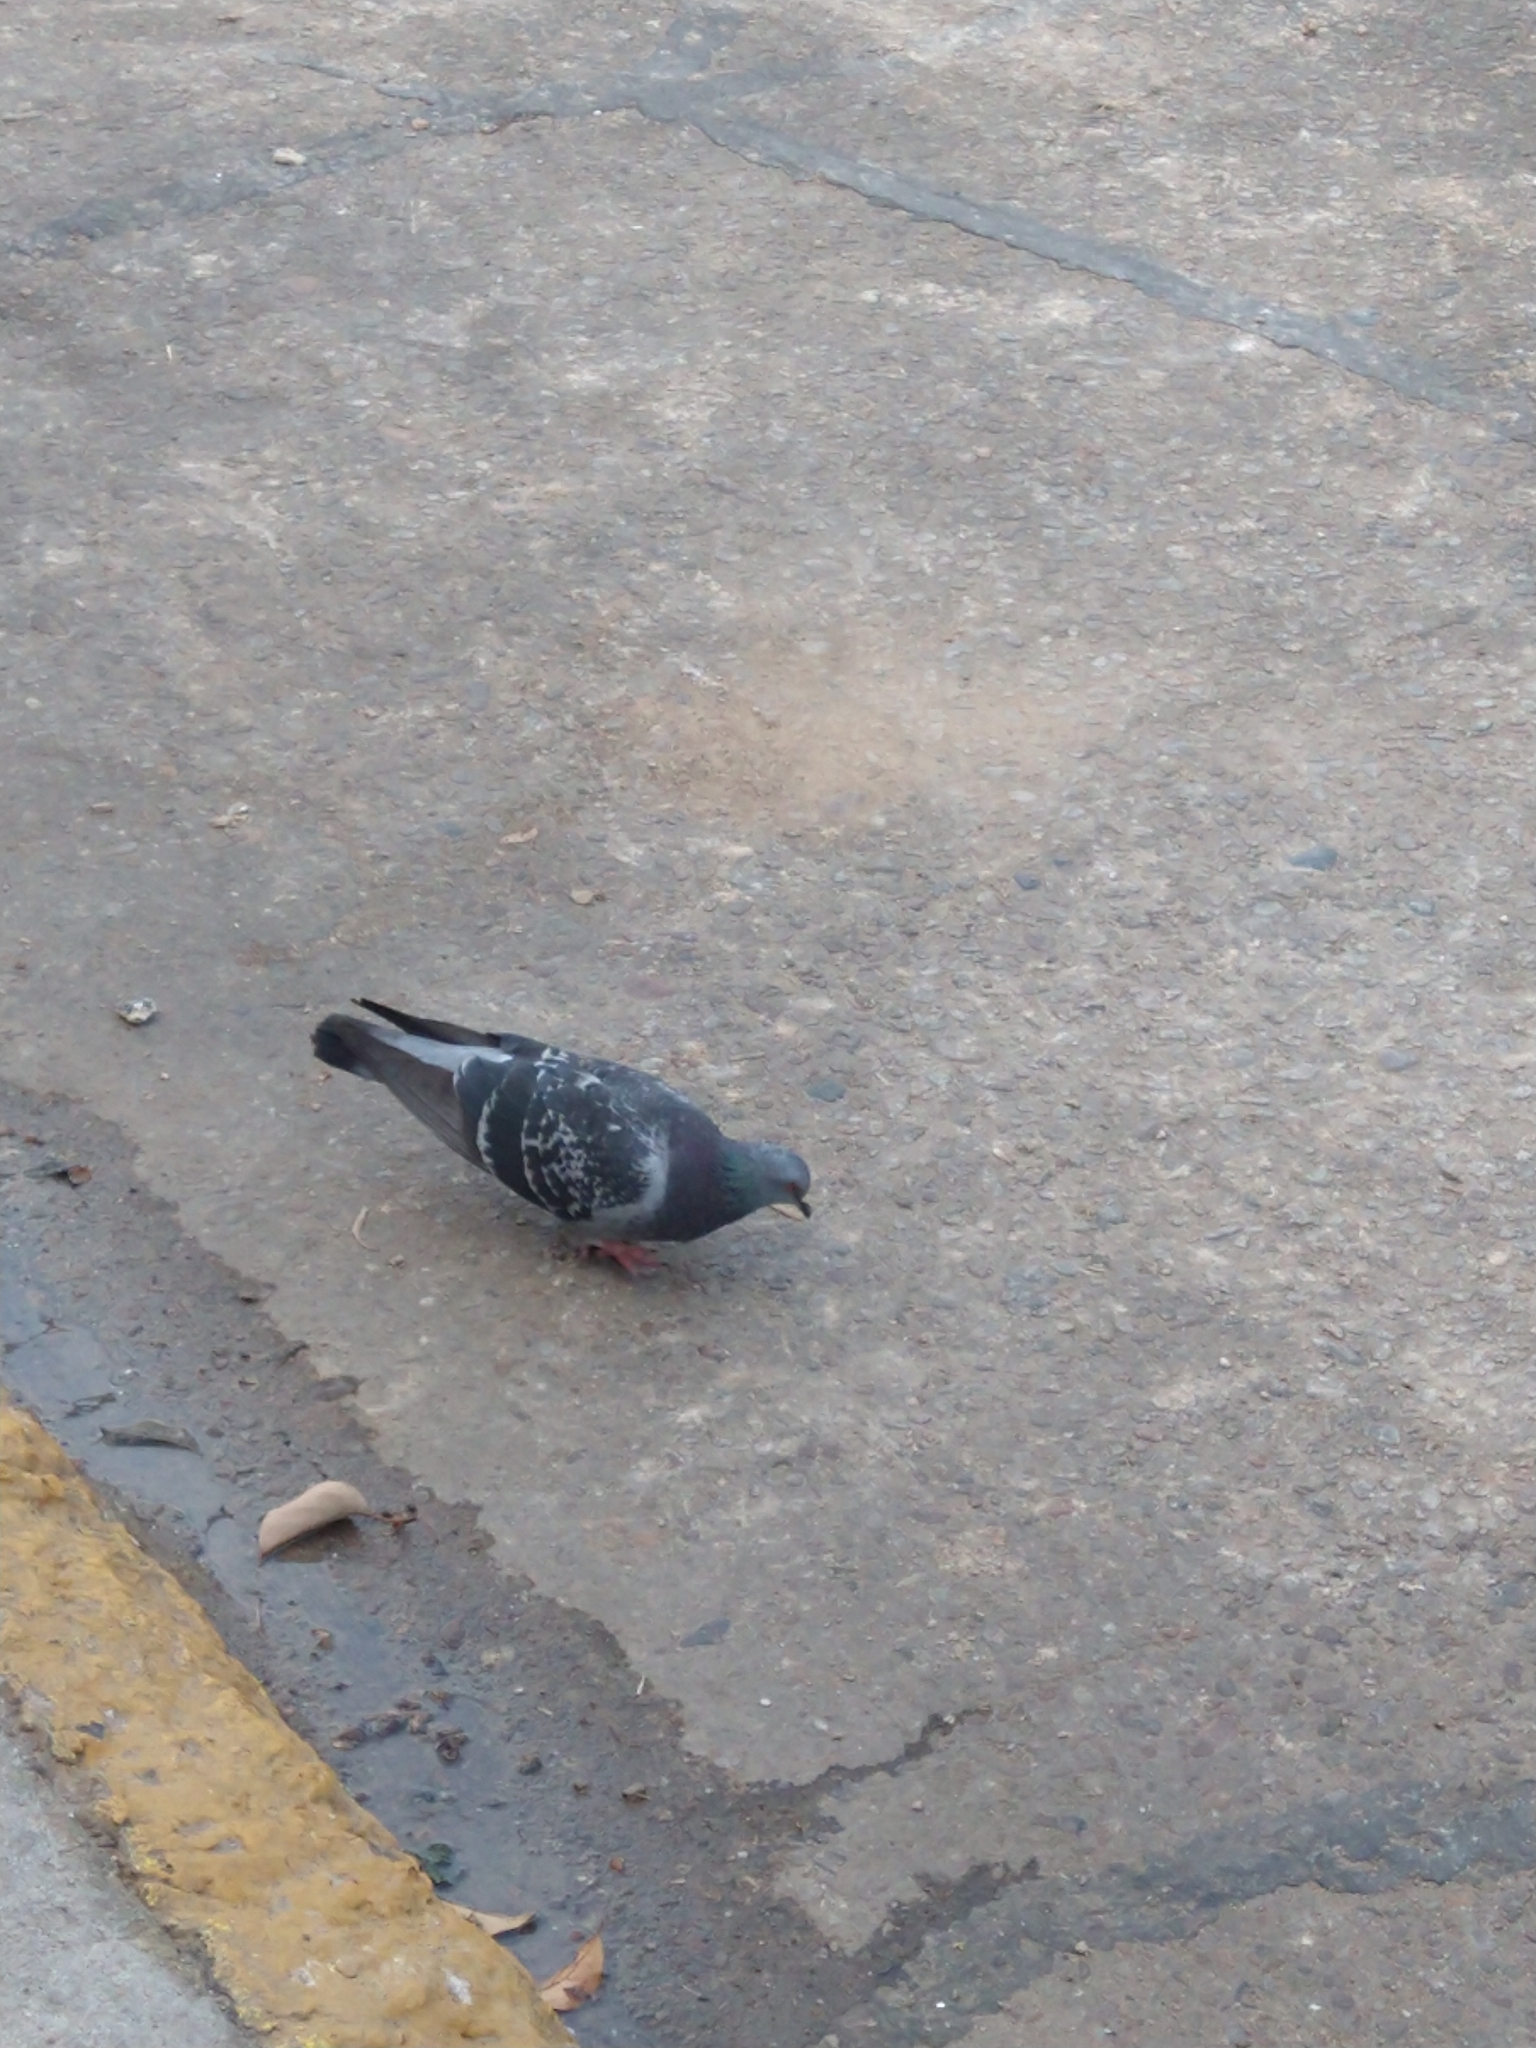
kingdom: Animalia
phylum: Chordata
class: Aves
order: Columbiformes
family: Columbidae
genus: Columba
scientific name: Columba livia
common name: Rock pigeon
